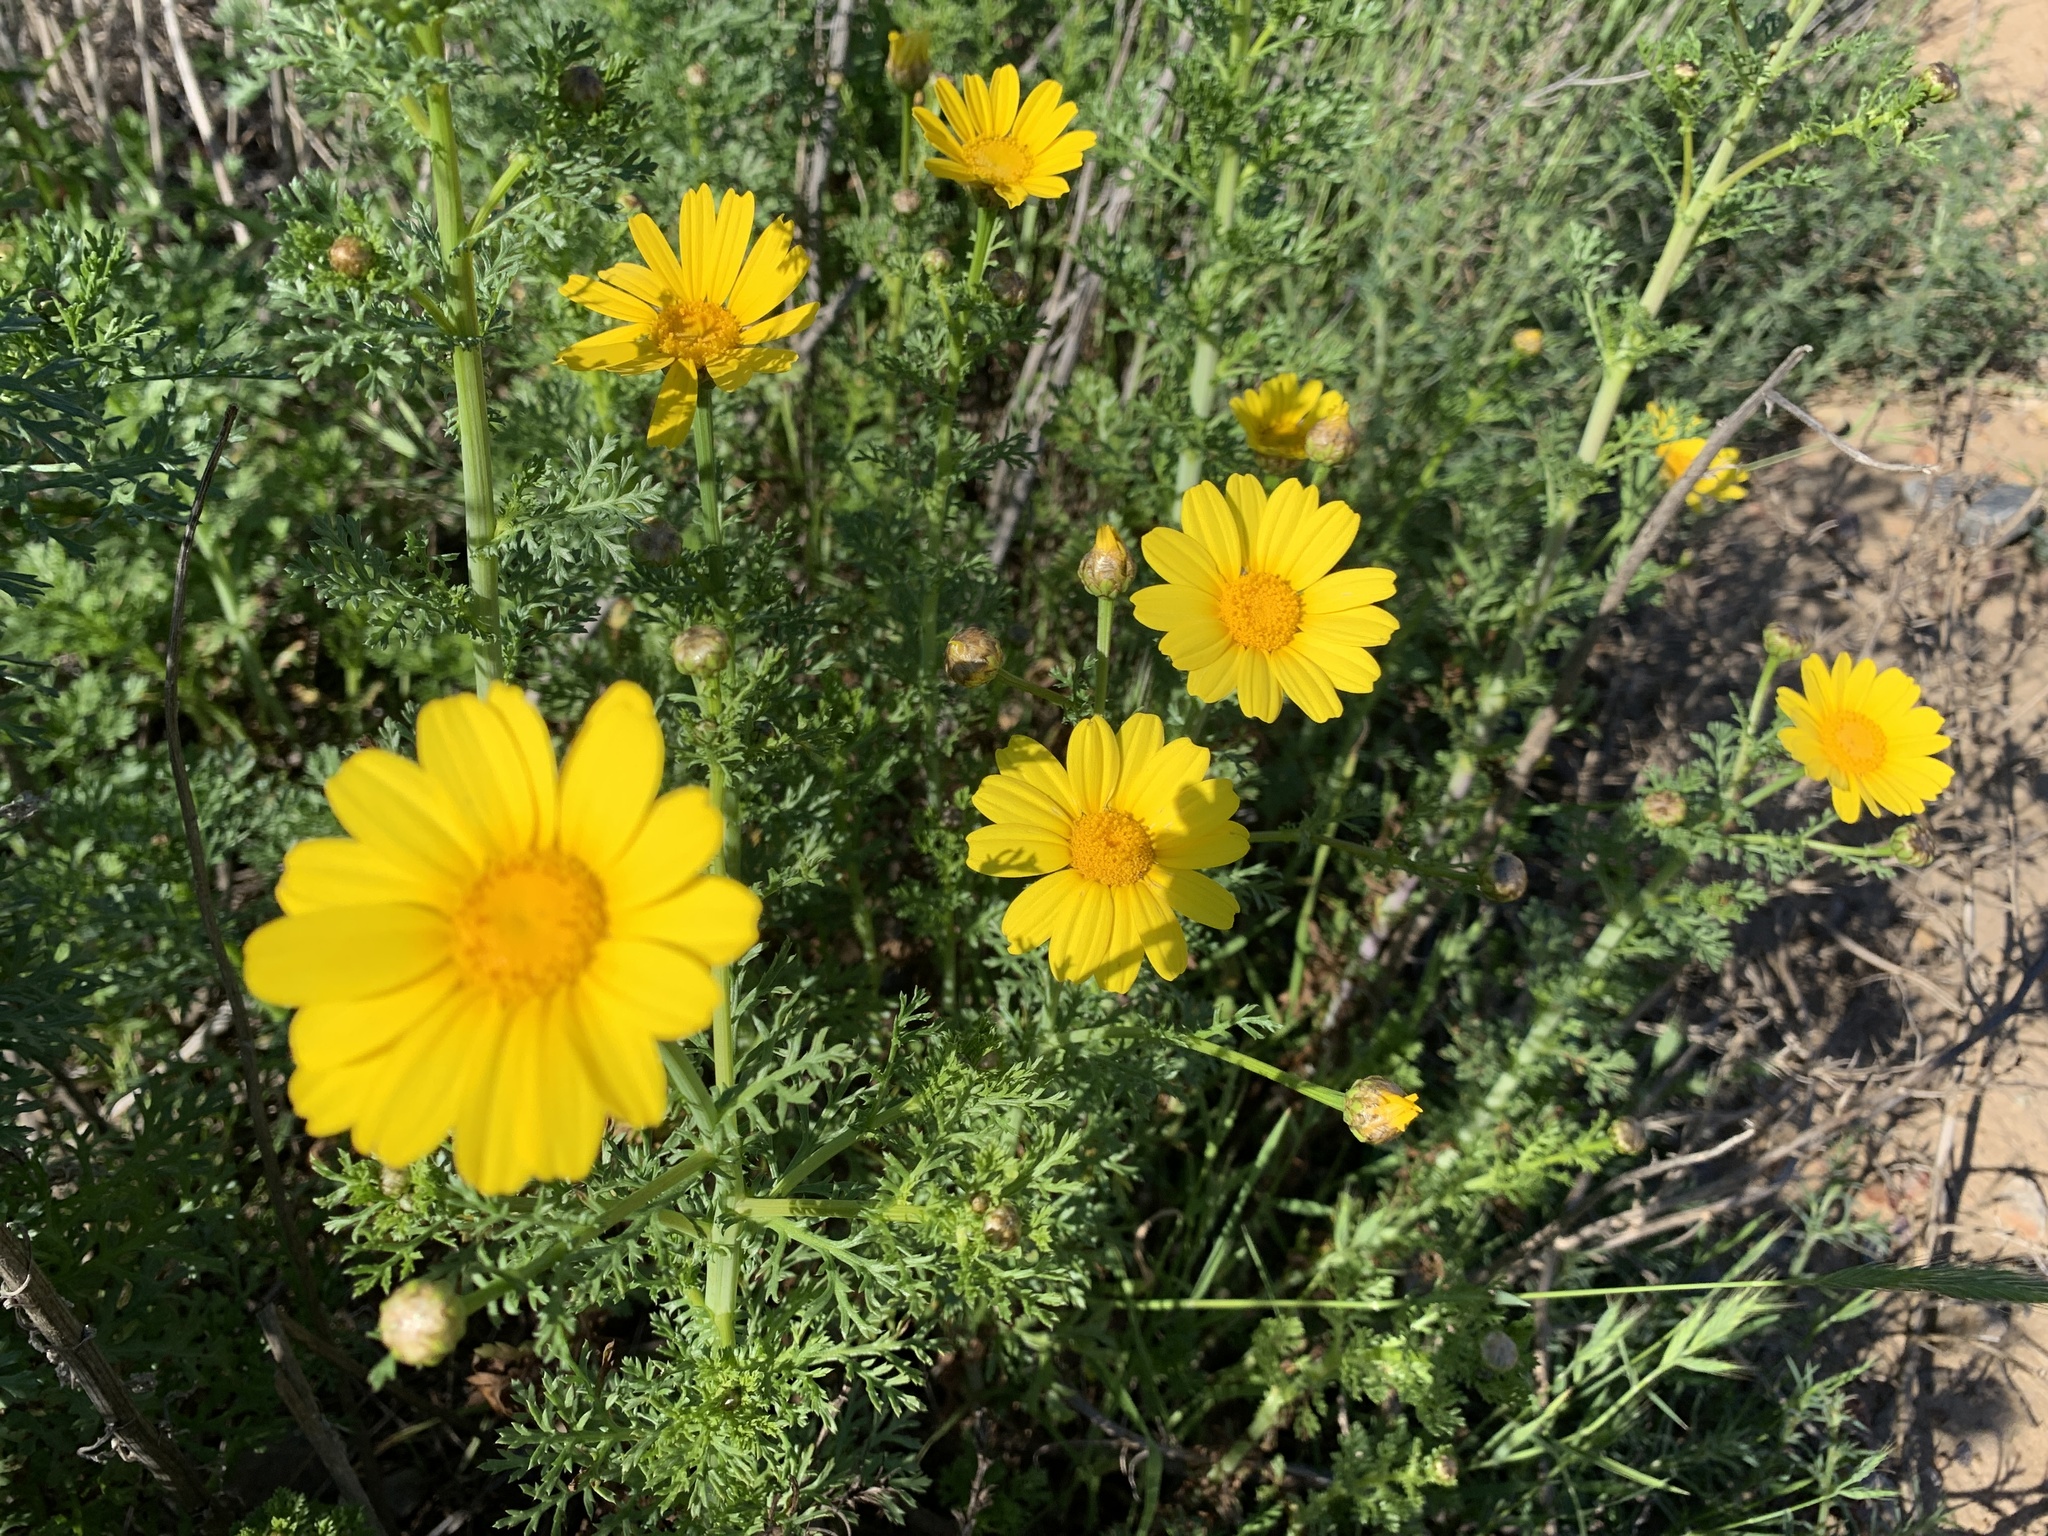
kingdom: Plantae
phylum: Tracheophyta
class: Magnoliopsida
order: Asterales
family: Asteraceae
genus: Glebionis
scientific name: Glebionis coronaria
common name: Crowndaisy
